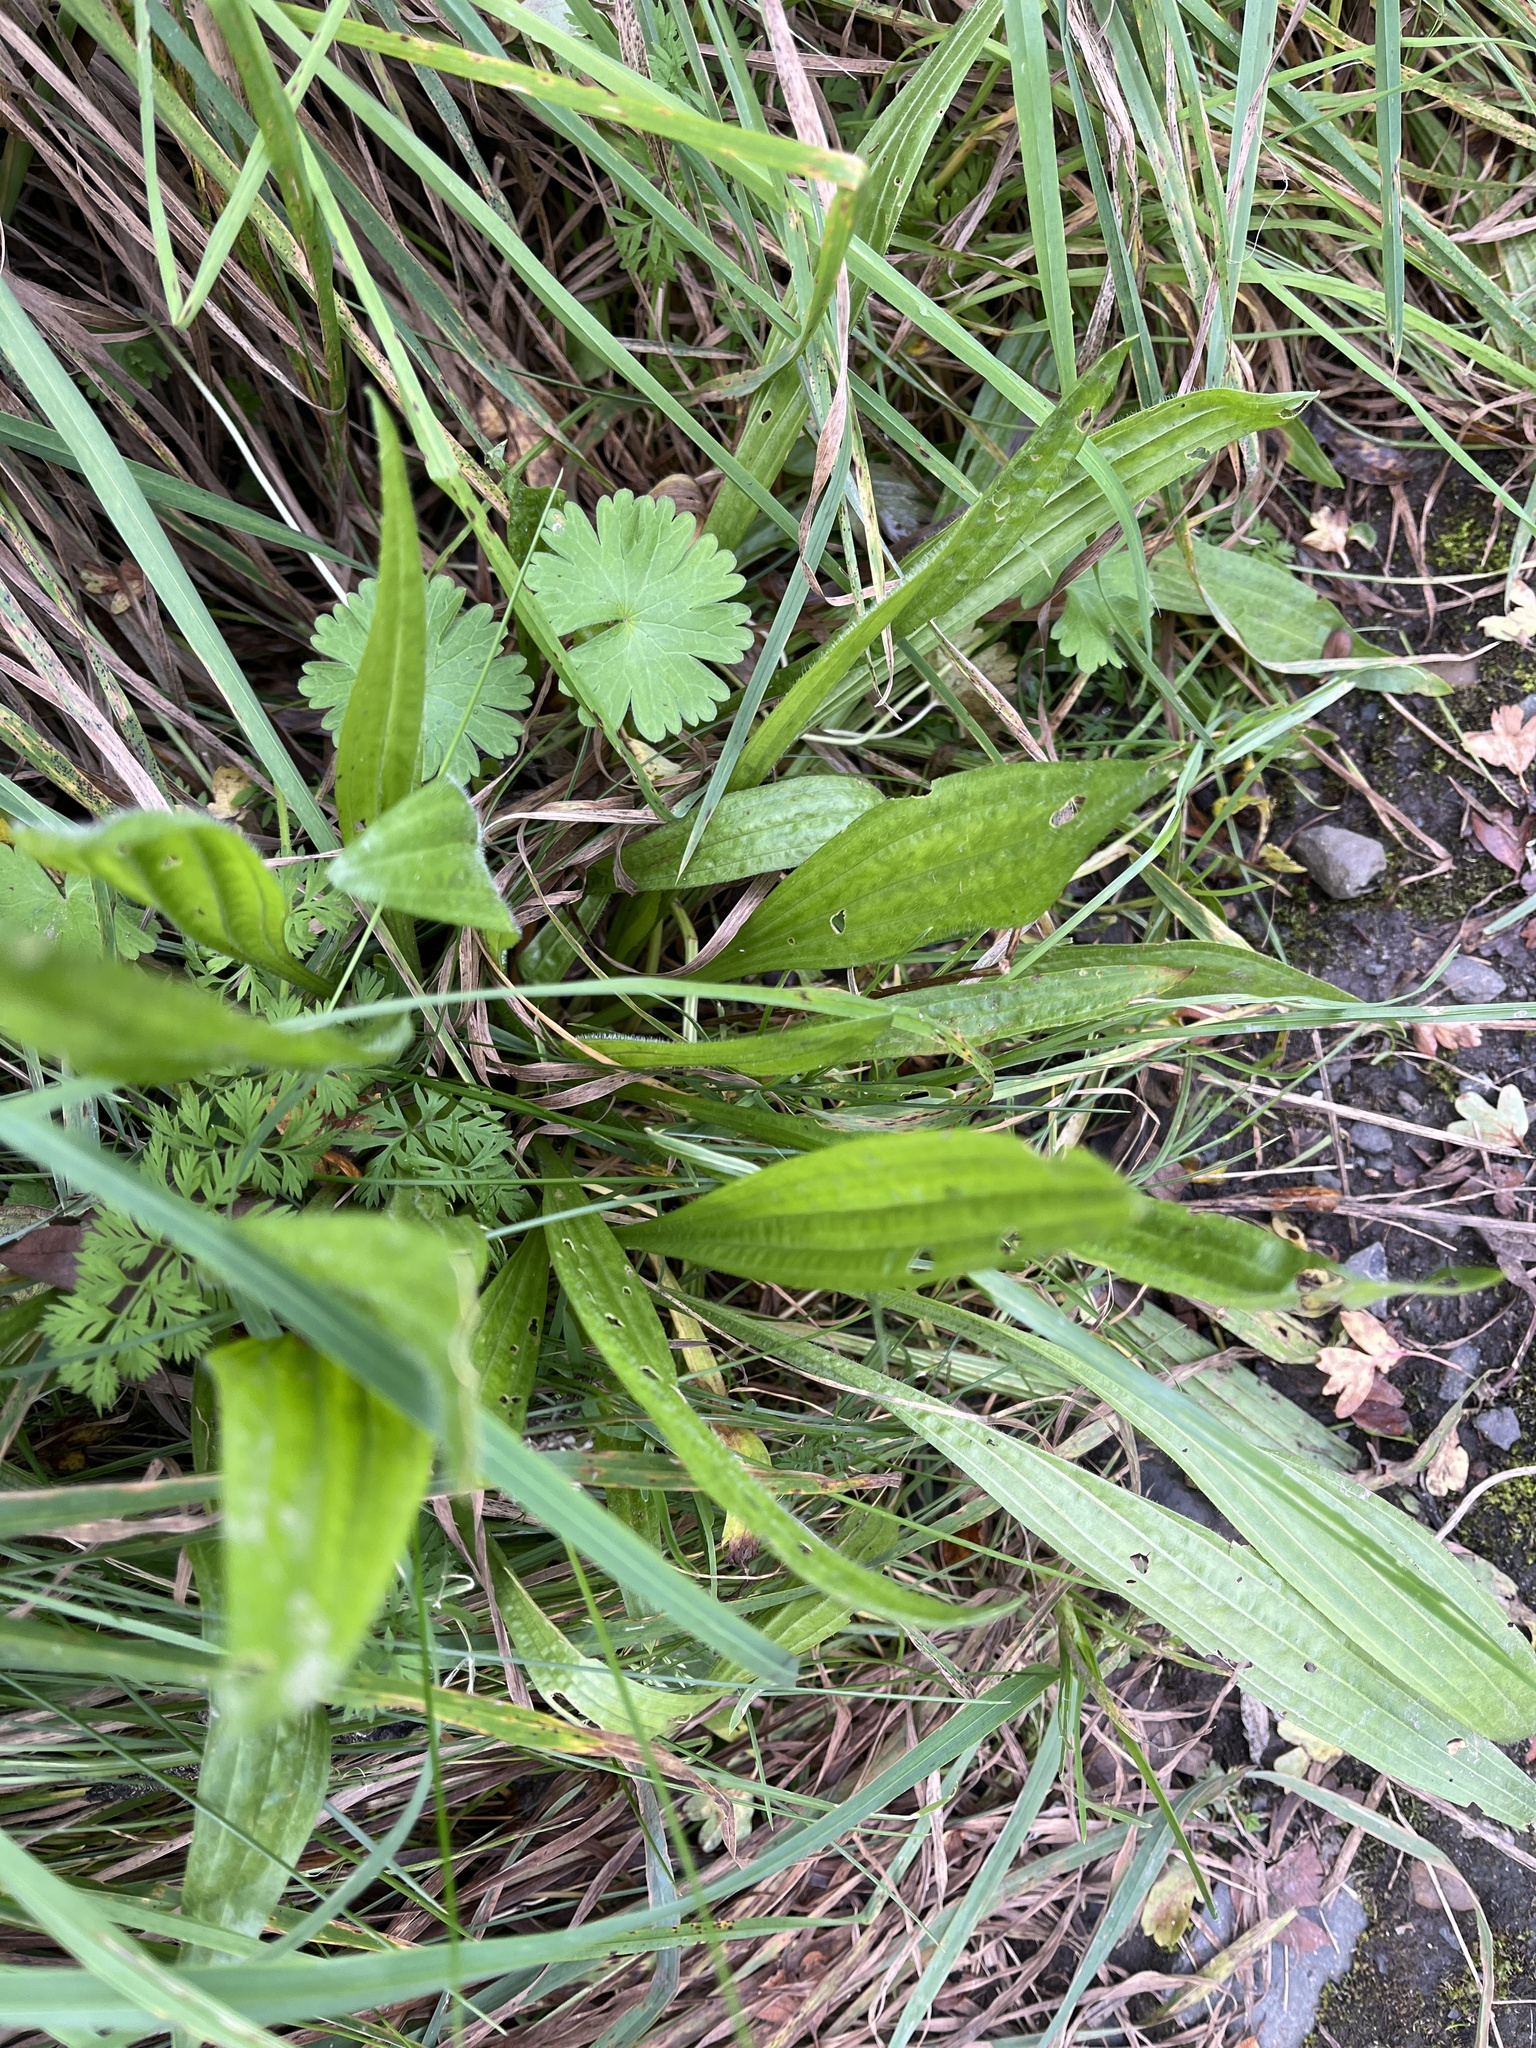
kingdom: Plantae
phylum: Tracheophyta
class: Magnoliopsida
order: Lamiales
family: Plantaginaceae
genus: Plantago
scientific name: Plantago lanceolata
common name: Ribwort plantain
